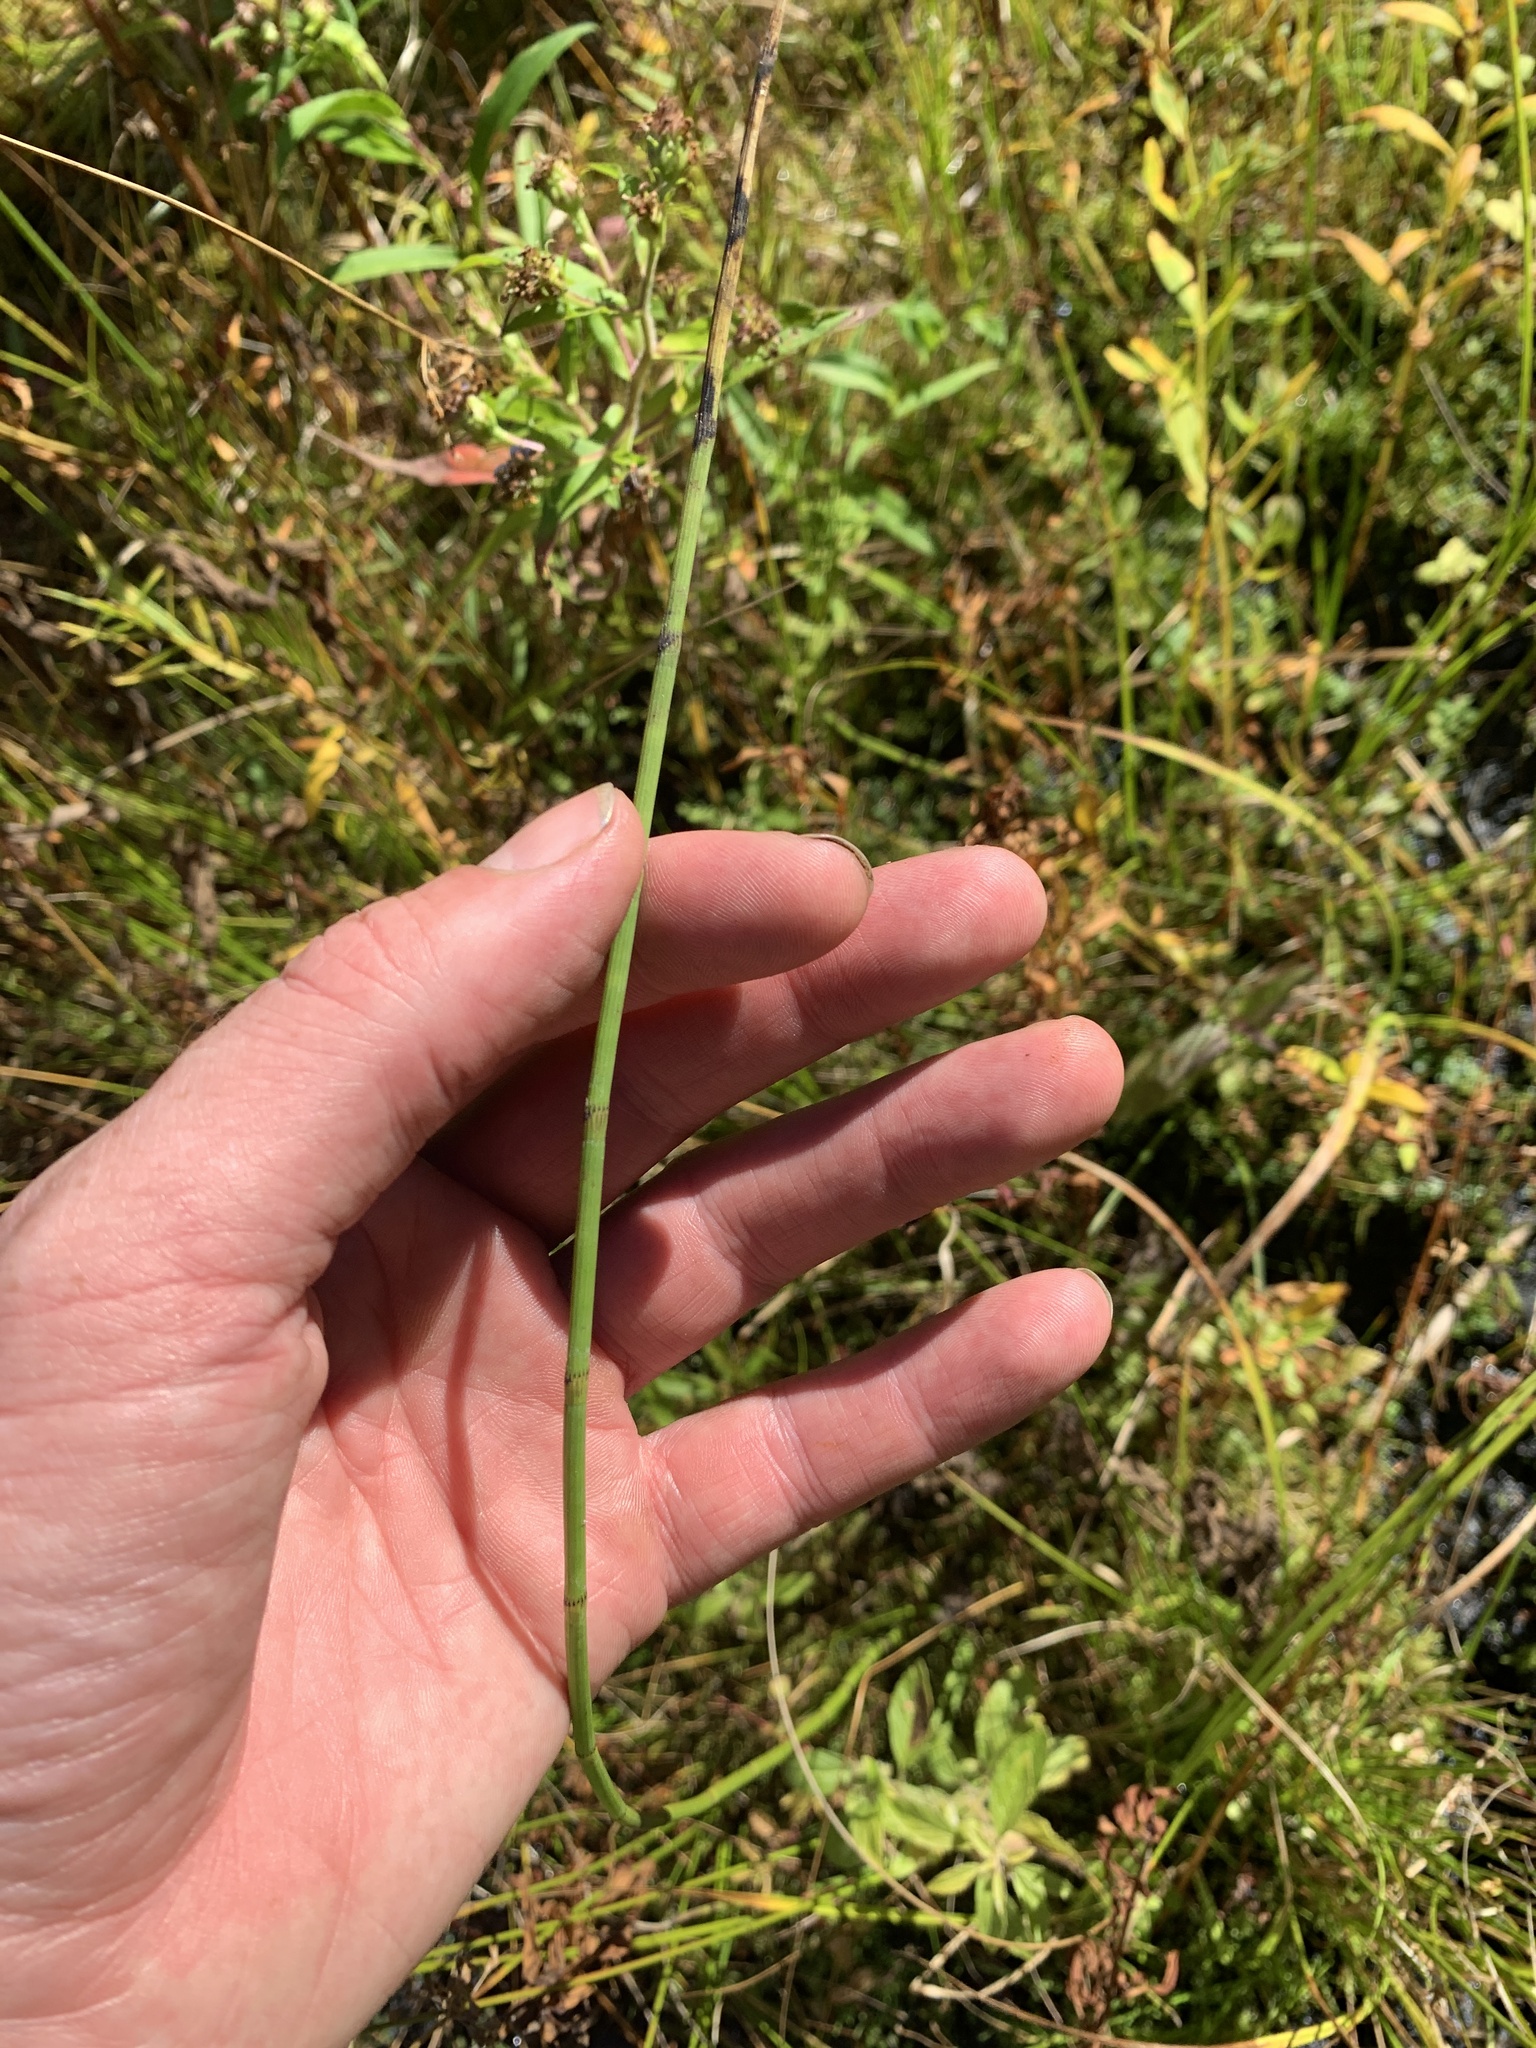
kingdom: Plantae
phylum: Tracheophyta
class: Polypodiopsida
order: Equisetales
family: Equisetaceae
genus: Equisetum
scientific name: Equisetum fluviatile
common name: Water horsetail
